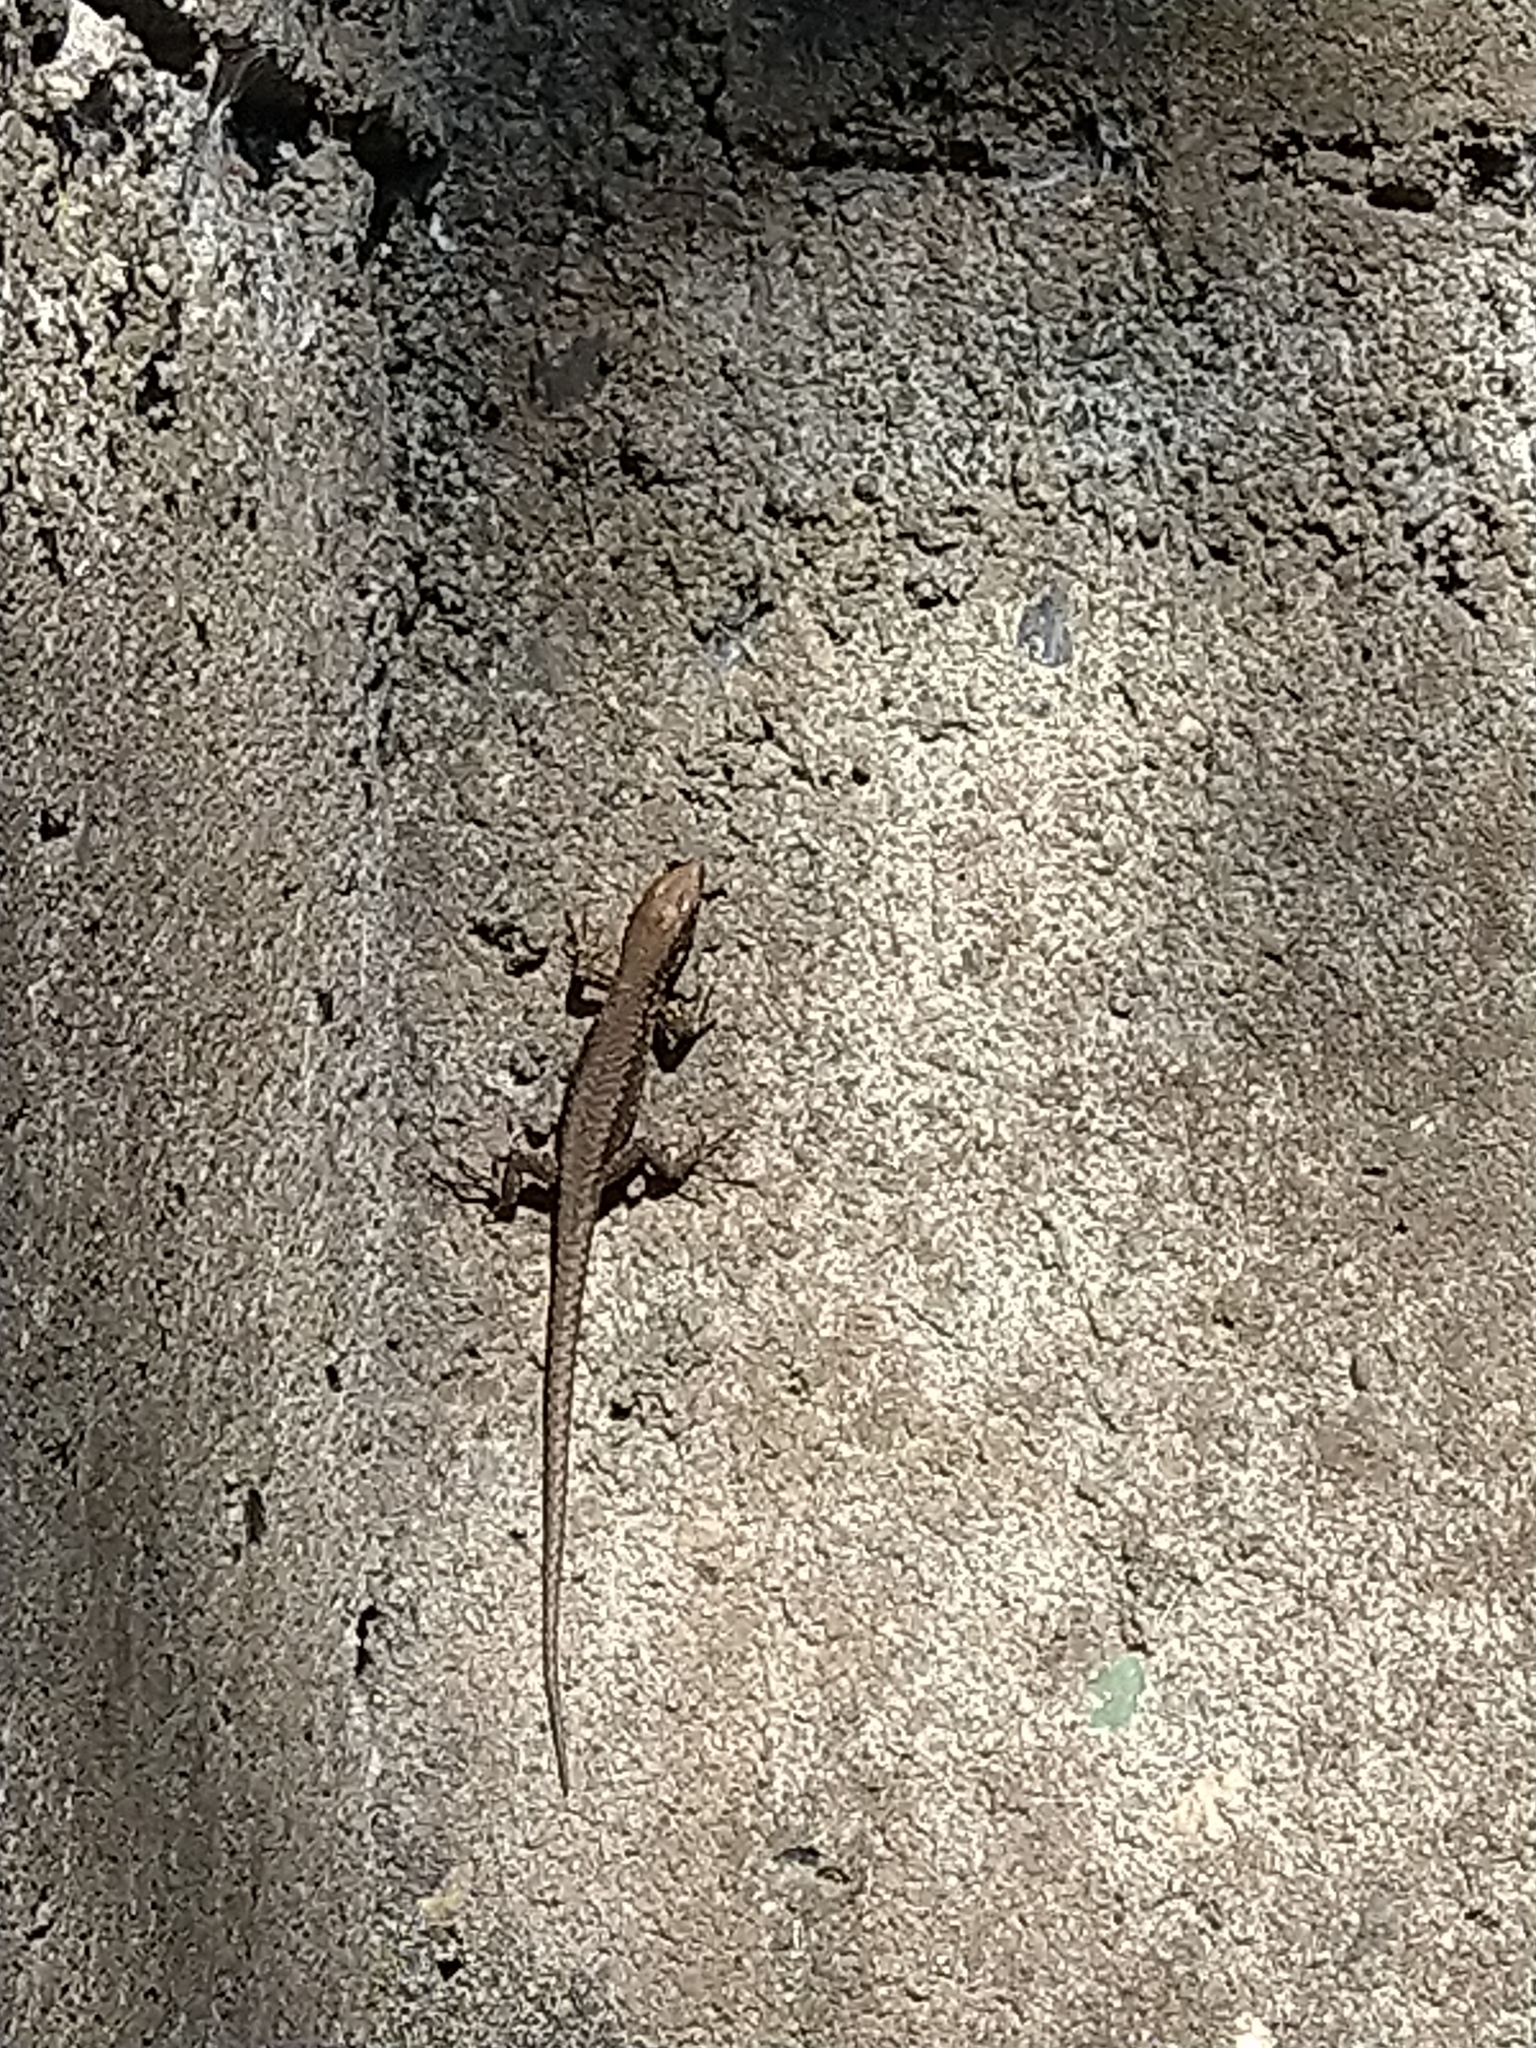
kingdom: Animalia
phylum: Chordata
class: Squamata
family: Lacertidae
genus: Darevskia
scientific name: Darevskia chlorogaster
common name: Green-bellied lizard
